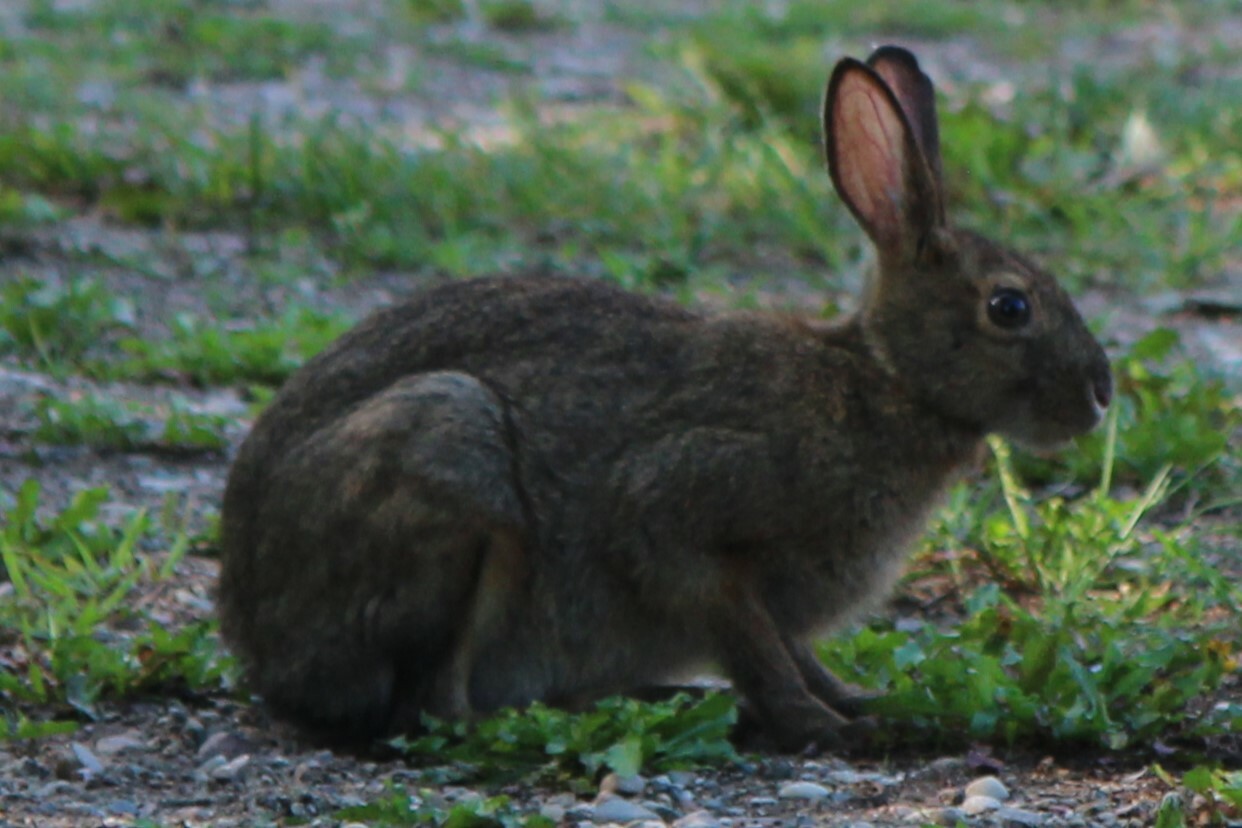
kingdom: Animalia
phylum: Chordata
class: Mammalia
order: Lagomorpha
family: Leporidae
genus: Lepus
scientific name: Lepus americanus
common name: Snowshoe hare
